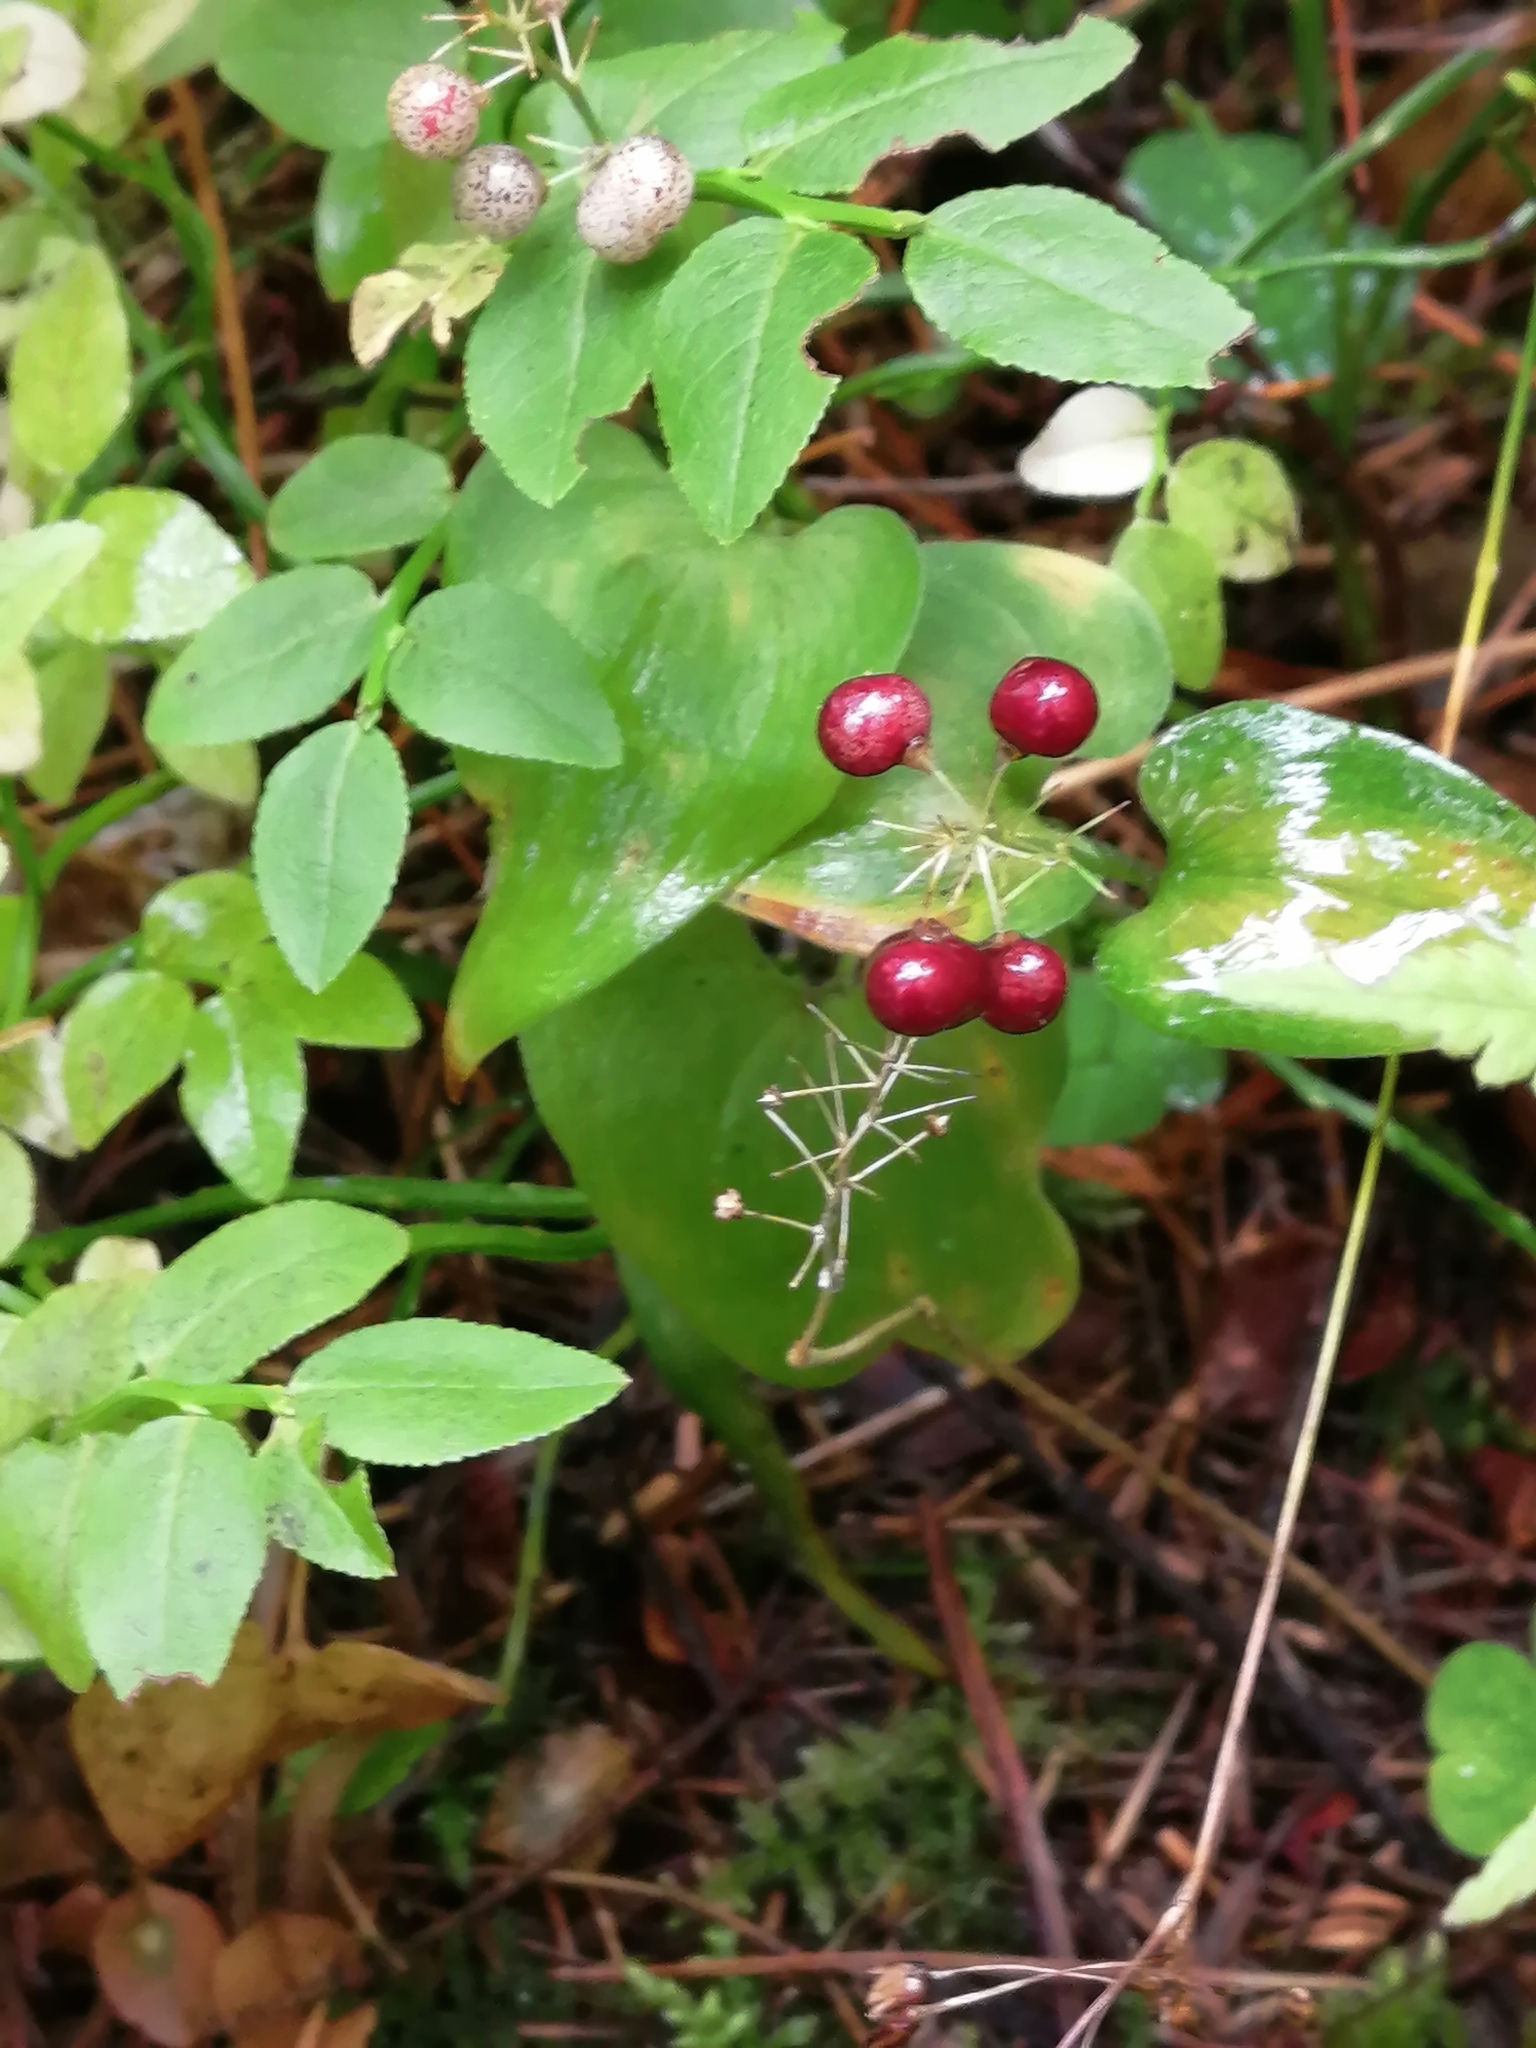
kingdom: Plantae
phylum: Tracheophyta
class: Liliopsida
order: Asparagales
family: Asparagaceae
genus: Maianthemum
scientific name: Maianthemum bifolium
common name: May lily
